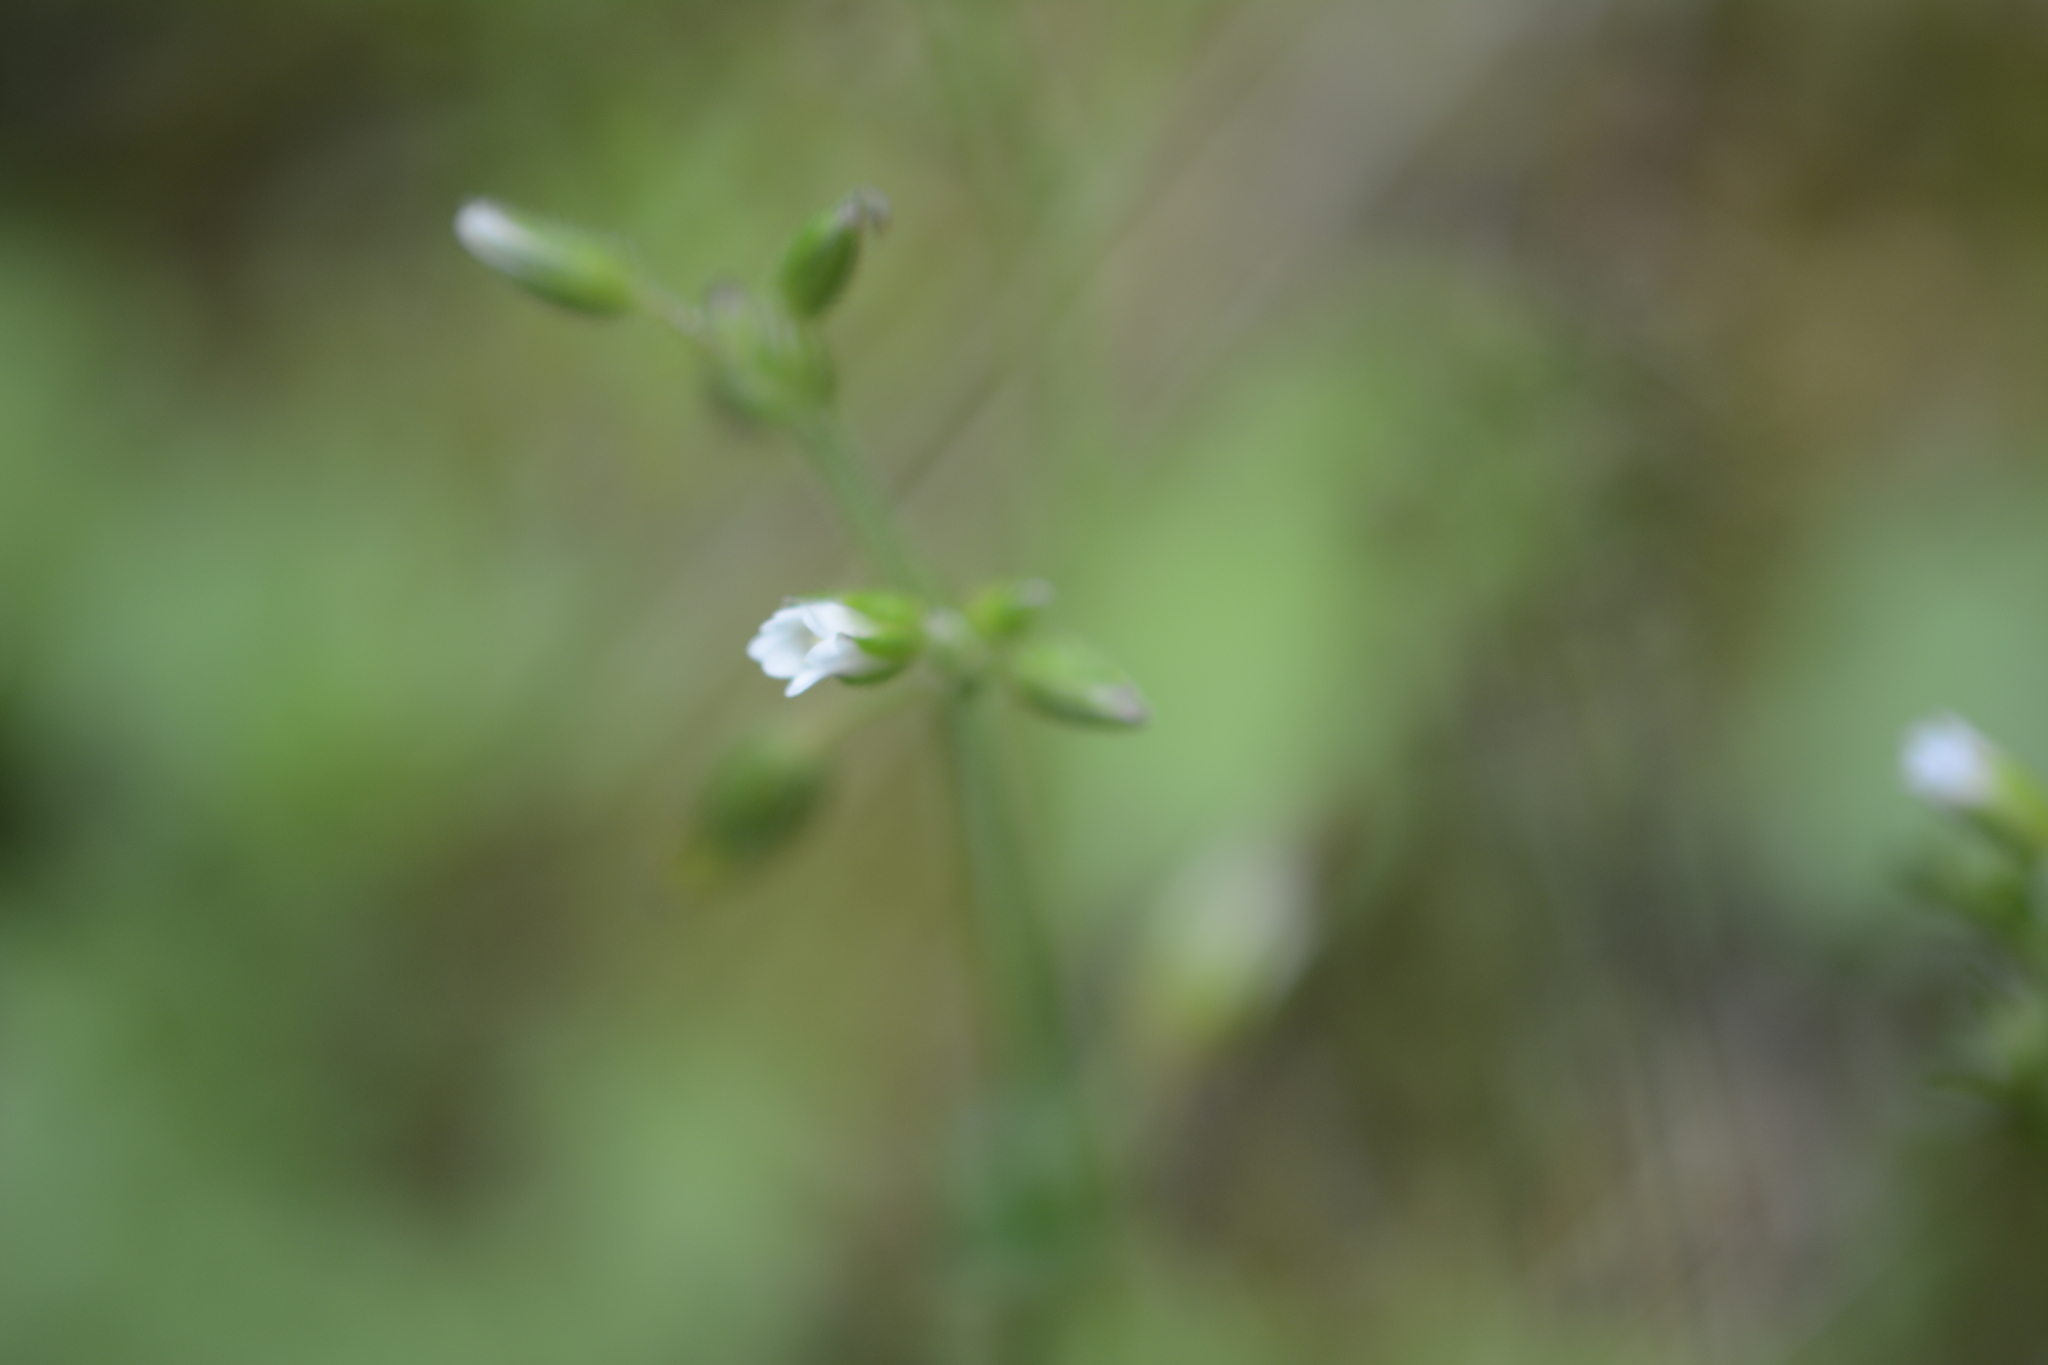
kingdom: Plantae
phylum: Tracheophyta
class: Magnoliopsida
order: Caryophyllales
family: Caryophyllaceae
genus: Cerastium
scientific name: Cerastium fontanum
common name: Common mouse-ear
